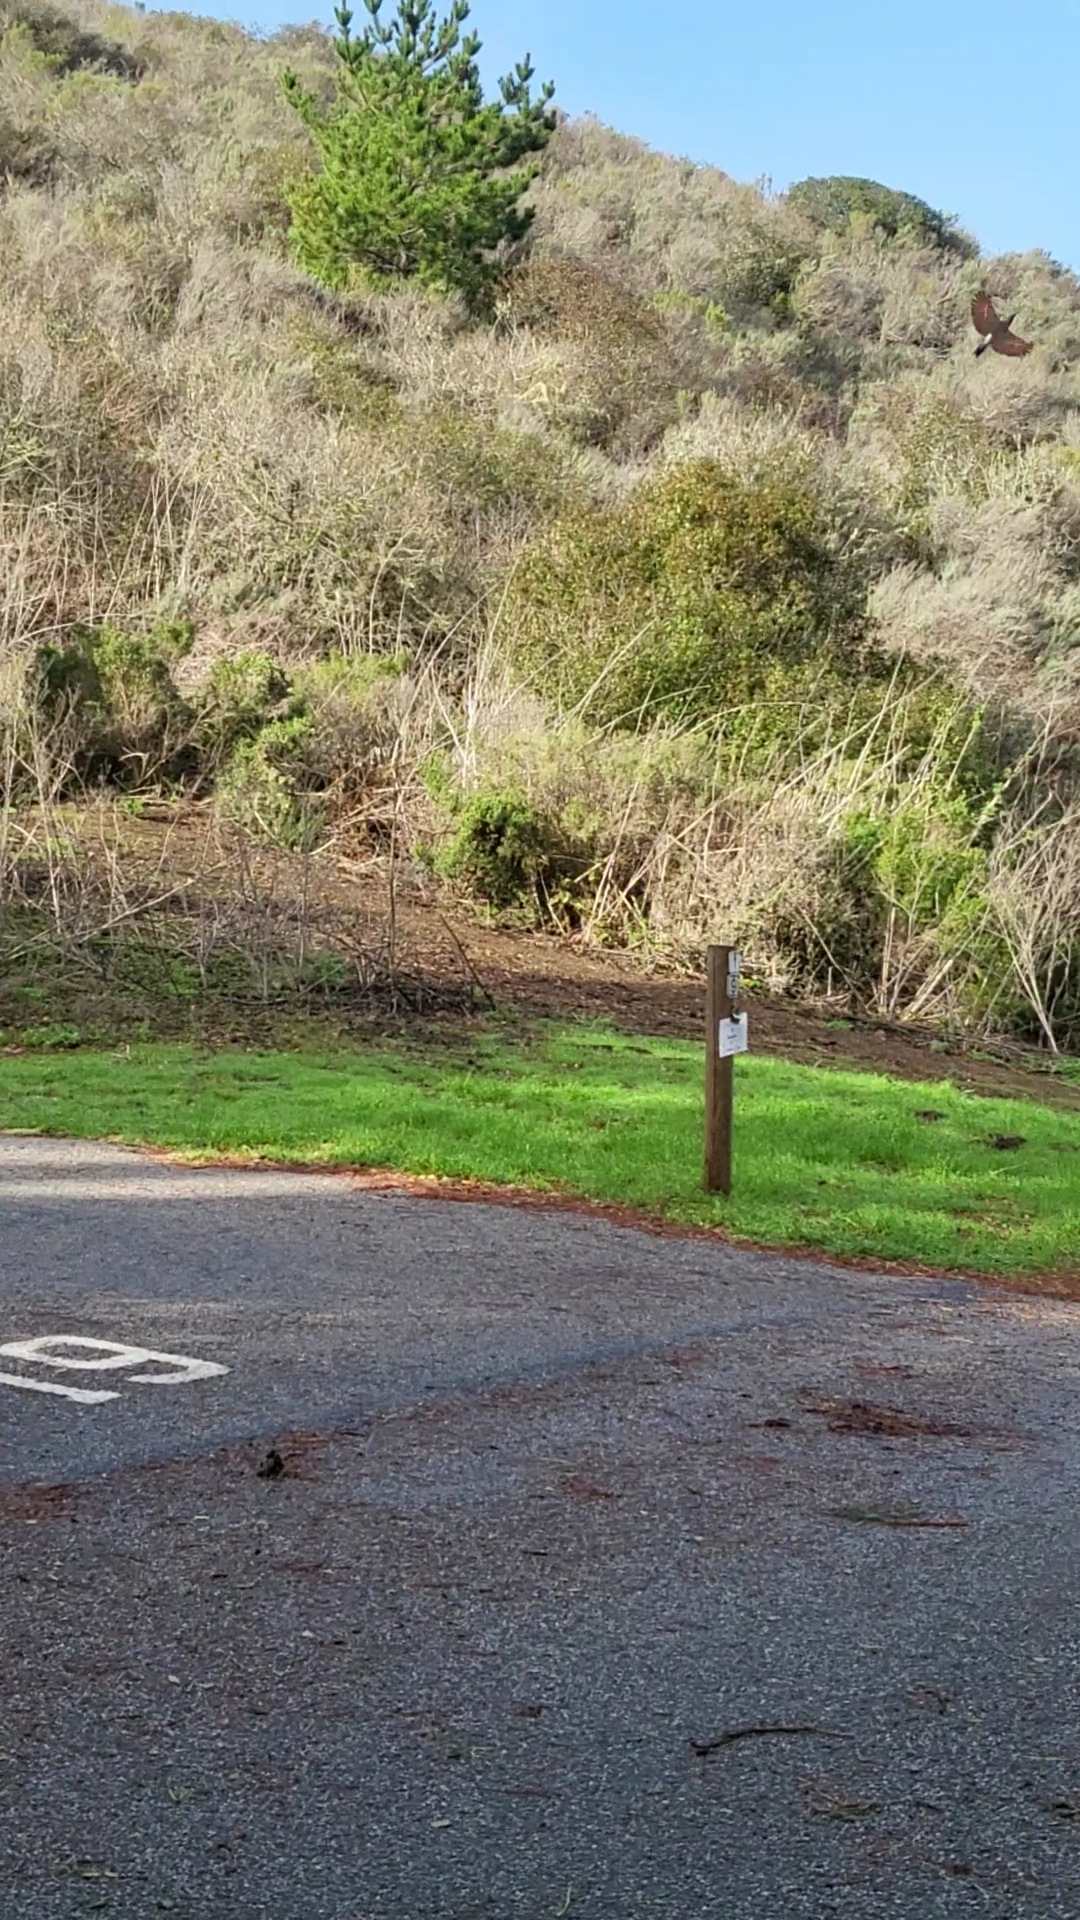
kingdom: Animalia
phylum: Chordata
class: Aves
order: Piciformes
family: Picidae
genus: Colaptes
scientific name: Colaptes auratus
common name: Northern flicker
